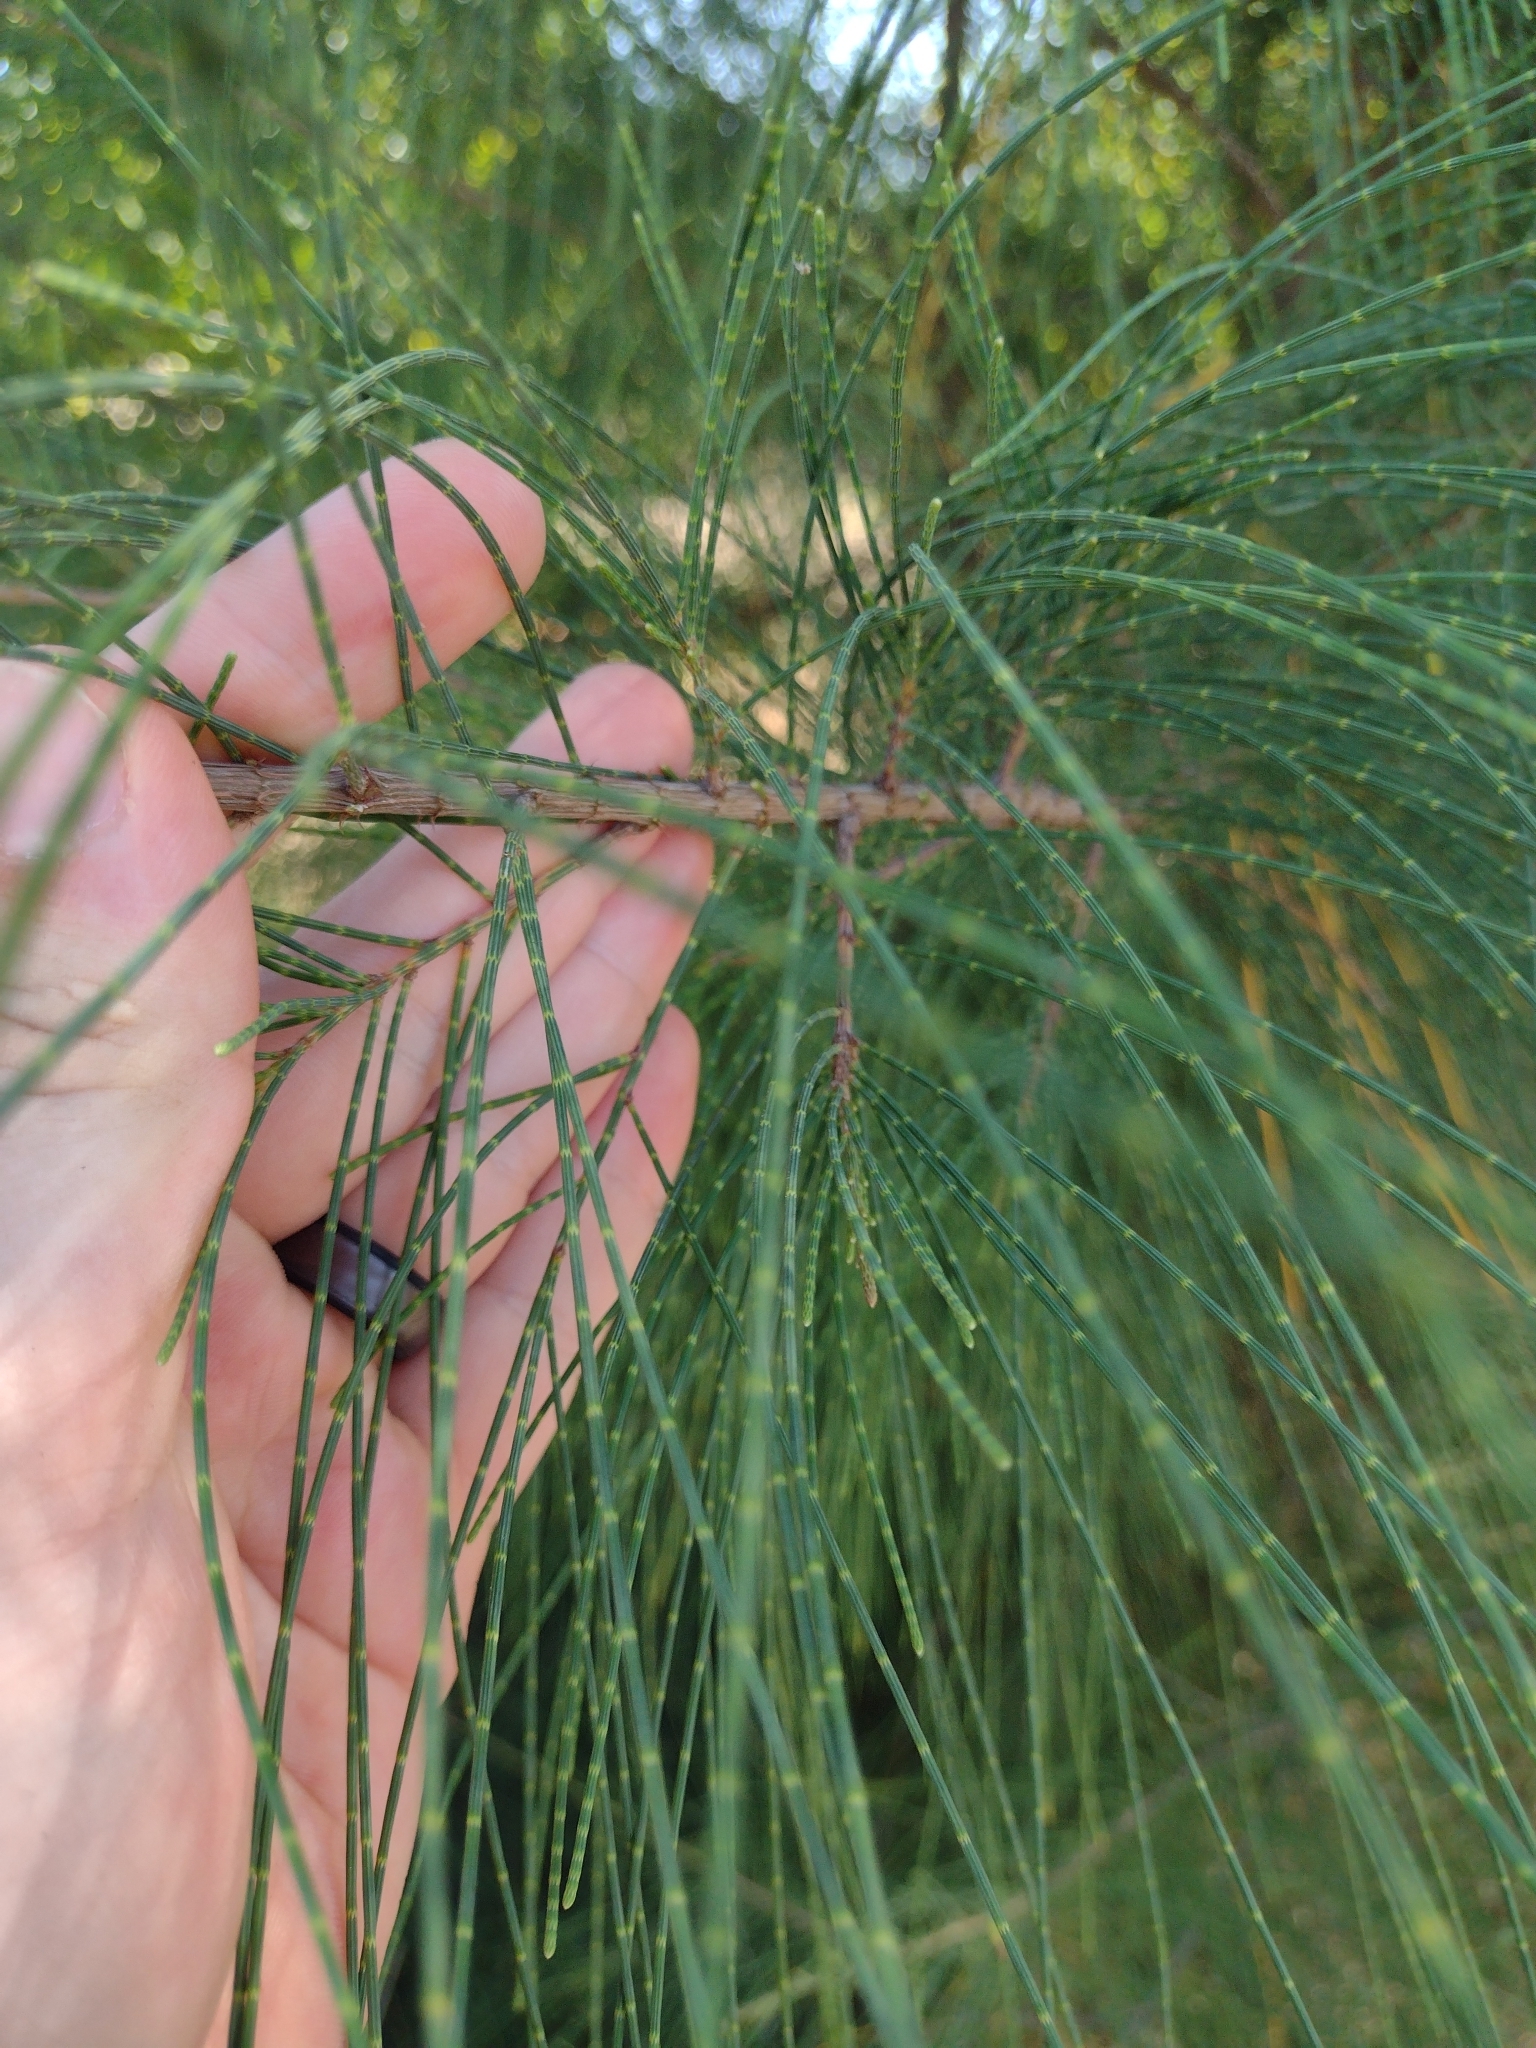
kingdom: Plantae
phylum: Tracheophyta
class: Magnoliopsida
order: Fagales
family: Casuarinaceae
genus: Casuarina
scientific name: Casuarina equisetifolia
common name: Beach sheoak
